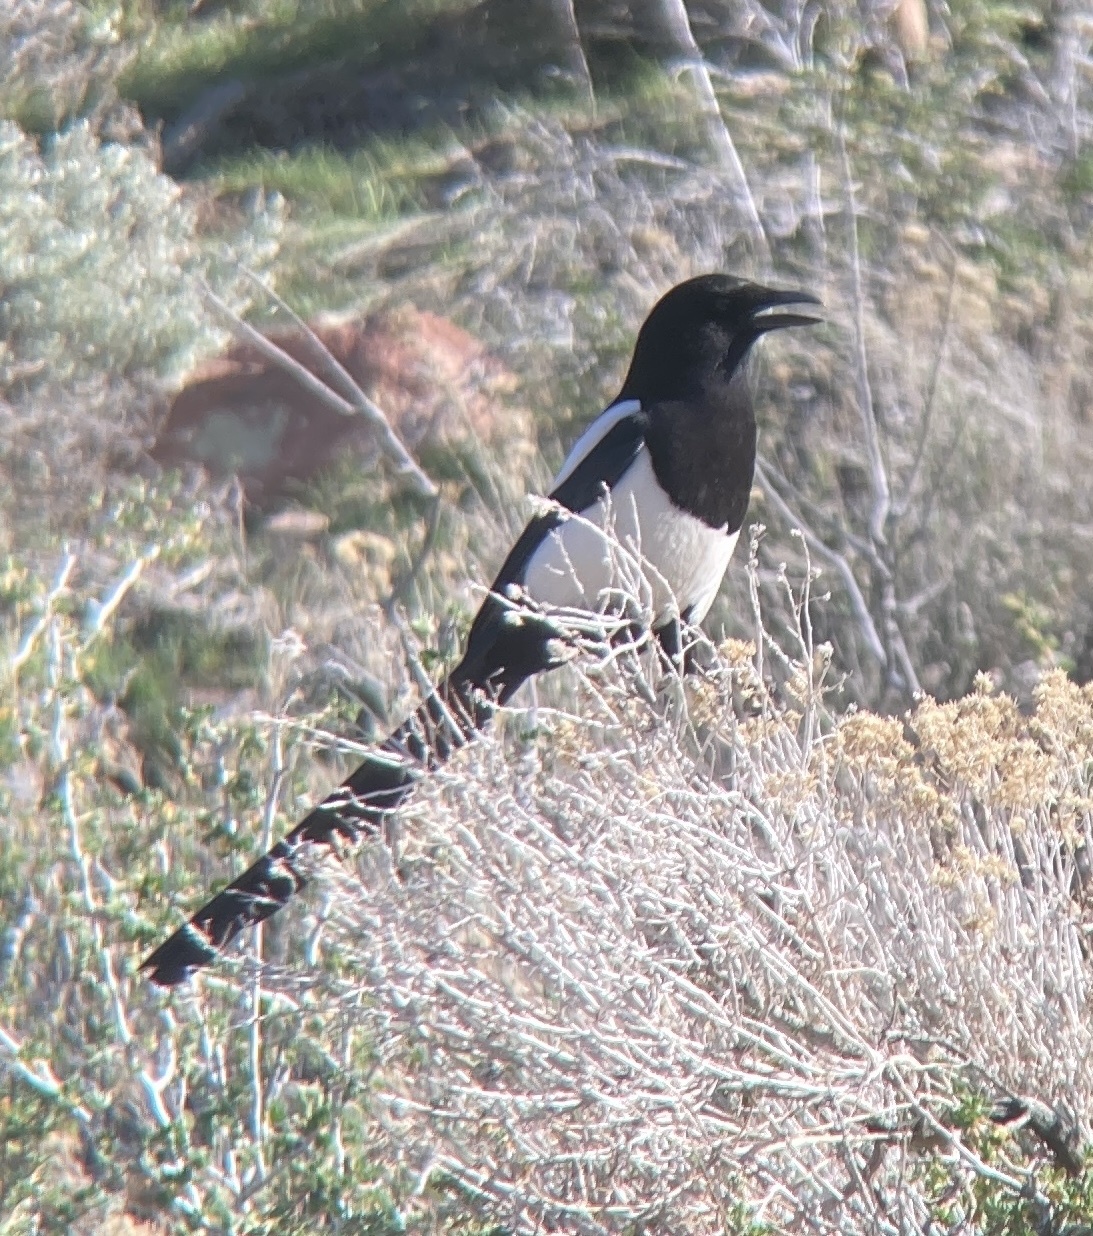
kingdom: Animalia
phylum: Chordata
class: Aves
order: Passeriformes
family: Corvidae
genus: Pica
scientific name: Pica hudsonia
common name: Black-billed magpie
